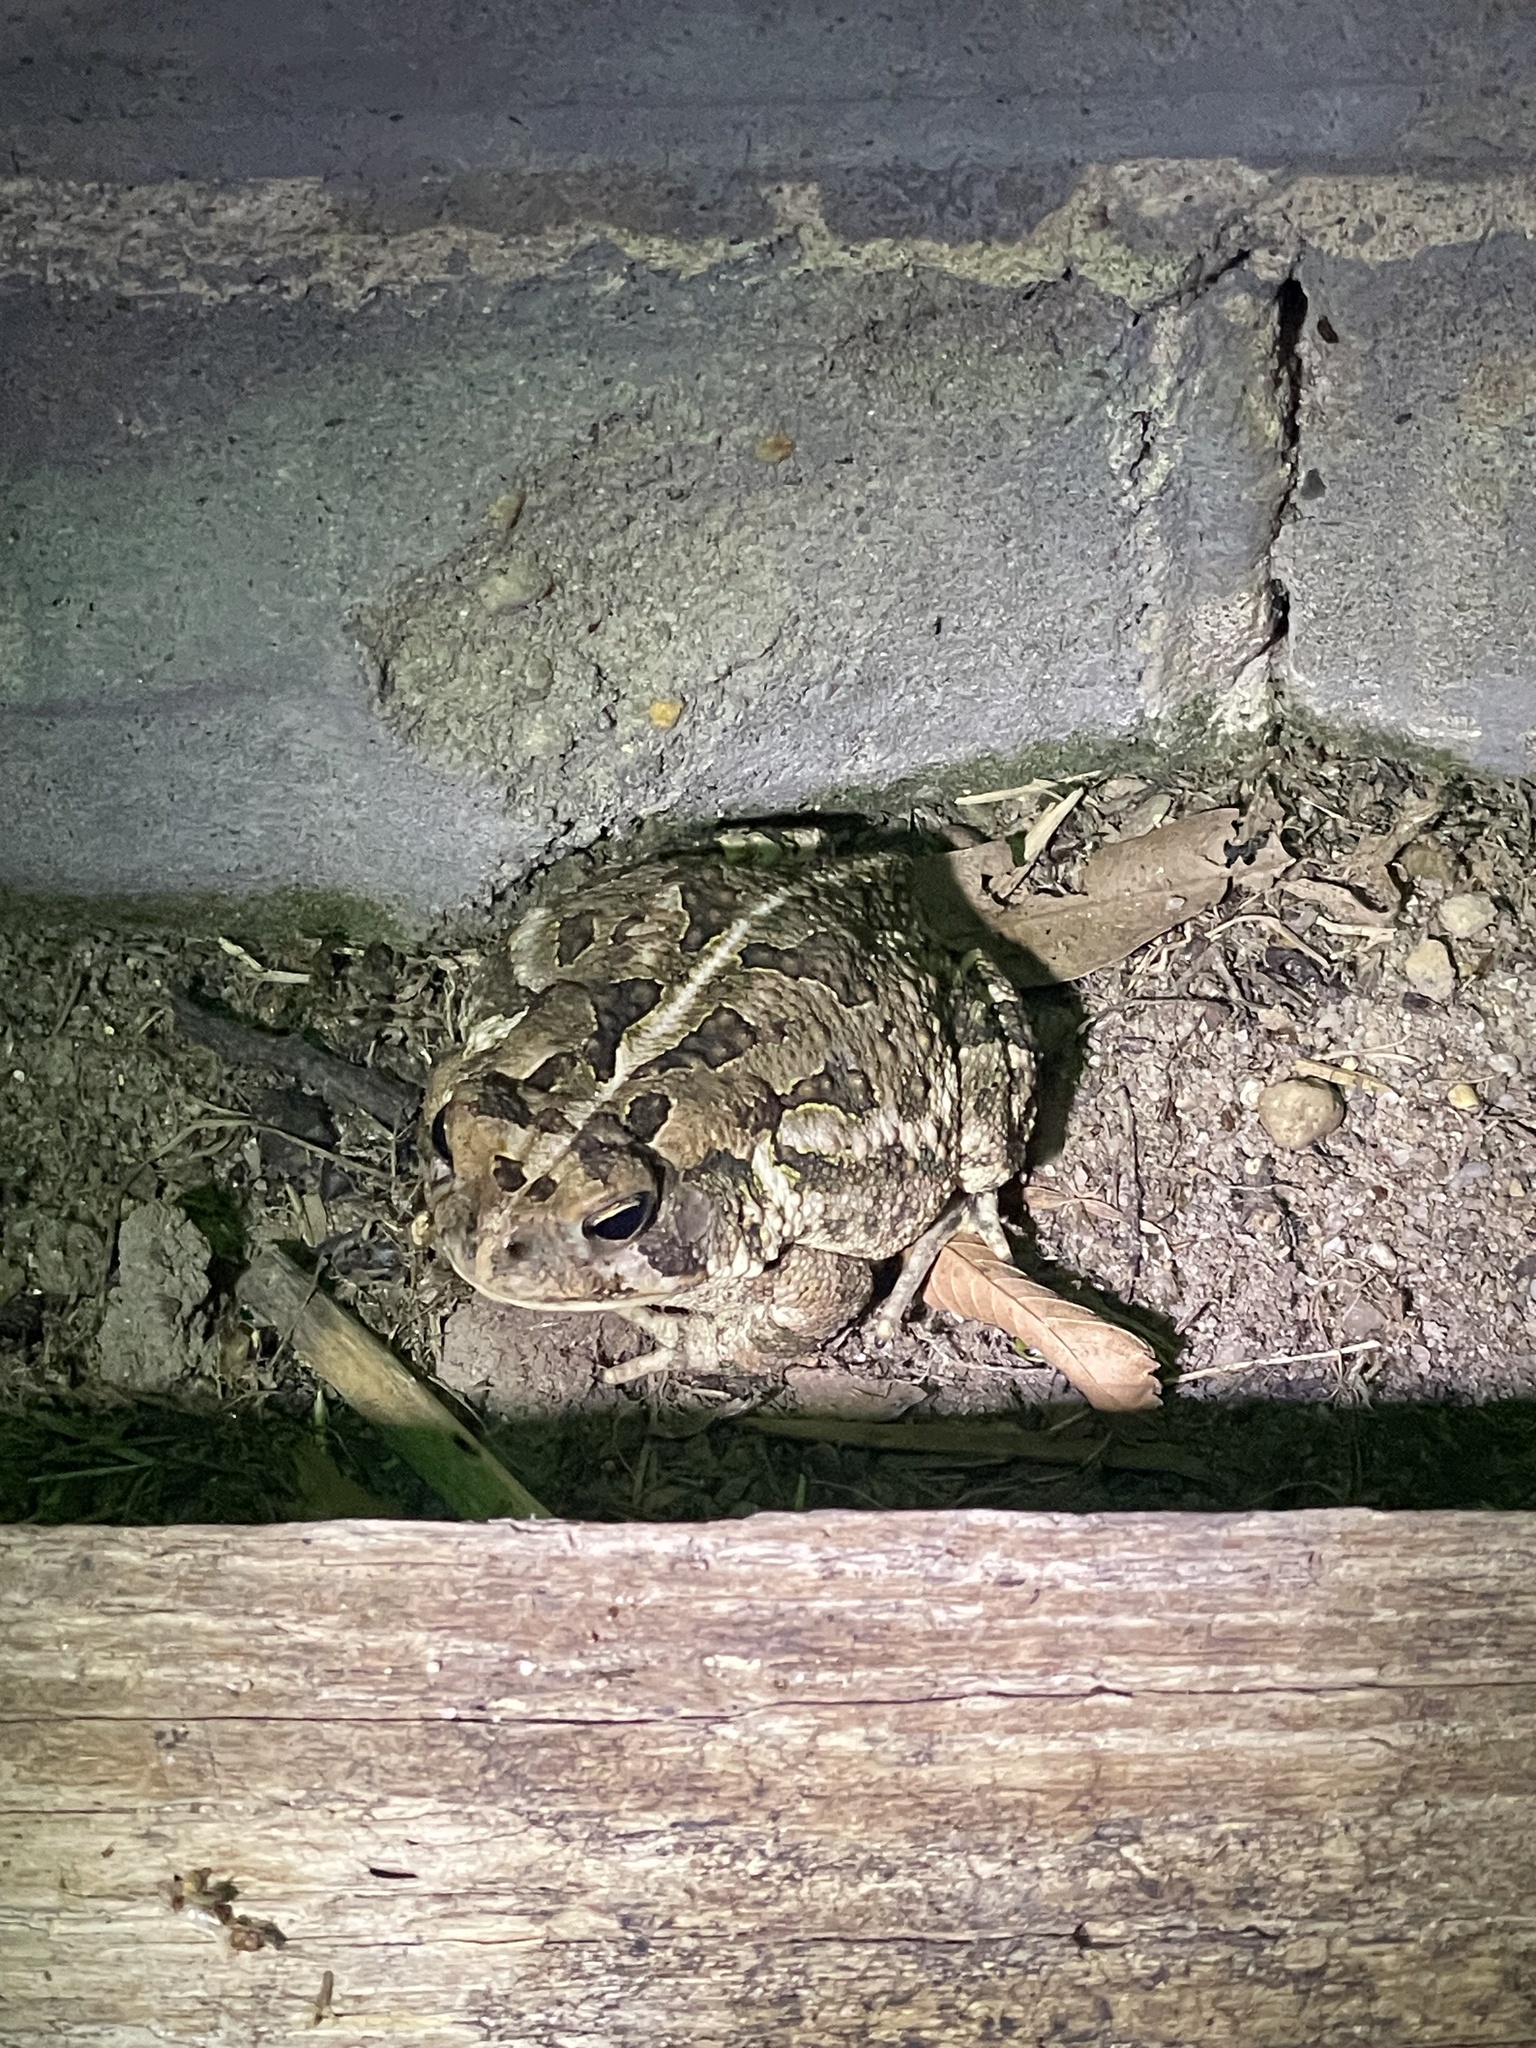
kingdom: Animalia
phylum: Chordata
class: Amphibia
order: Anura
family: Bufonidae
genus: Anaxyrus
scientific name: Anaxyrus fowleri
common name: Fowler's toad
